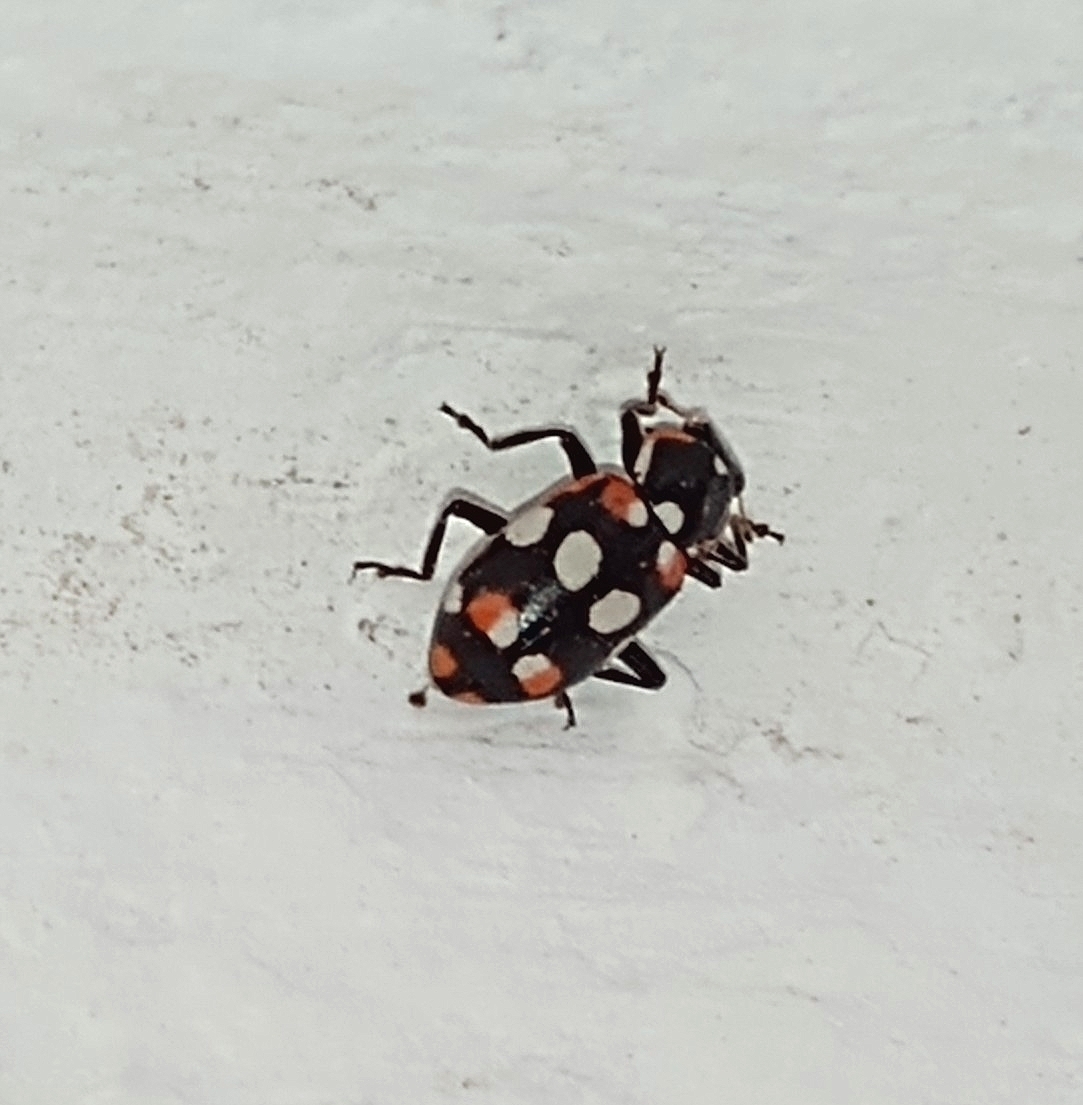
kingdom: Animalia
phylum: Arthropoda
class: Insecta
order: Coleoptera
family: Coccinellidae
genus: Eriopis
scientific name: Eriopis connexa
